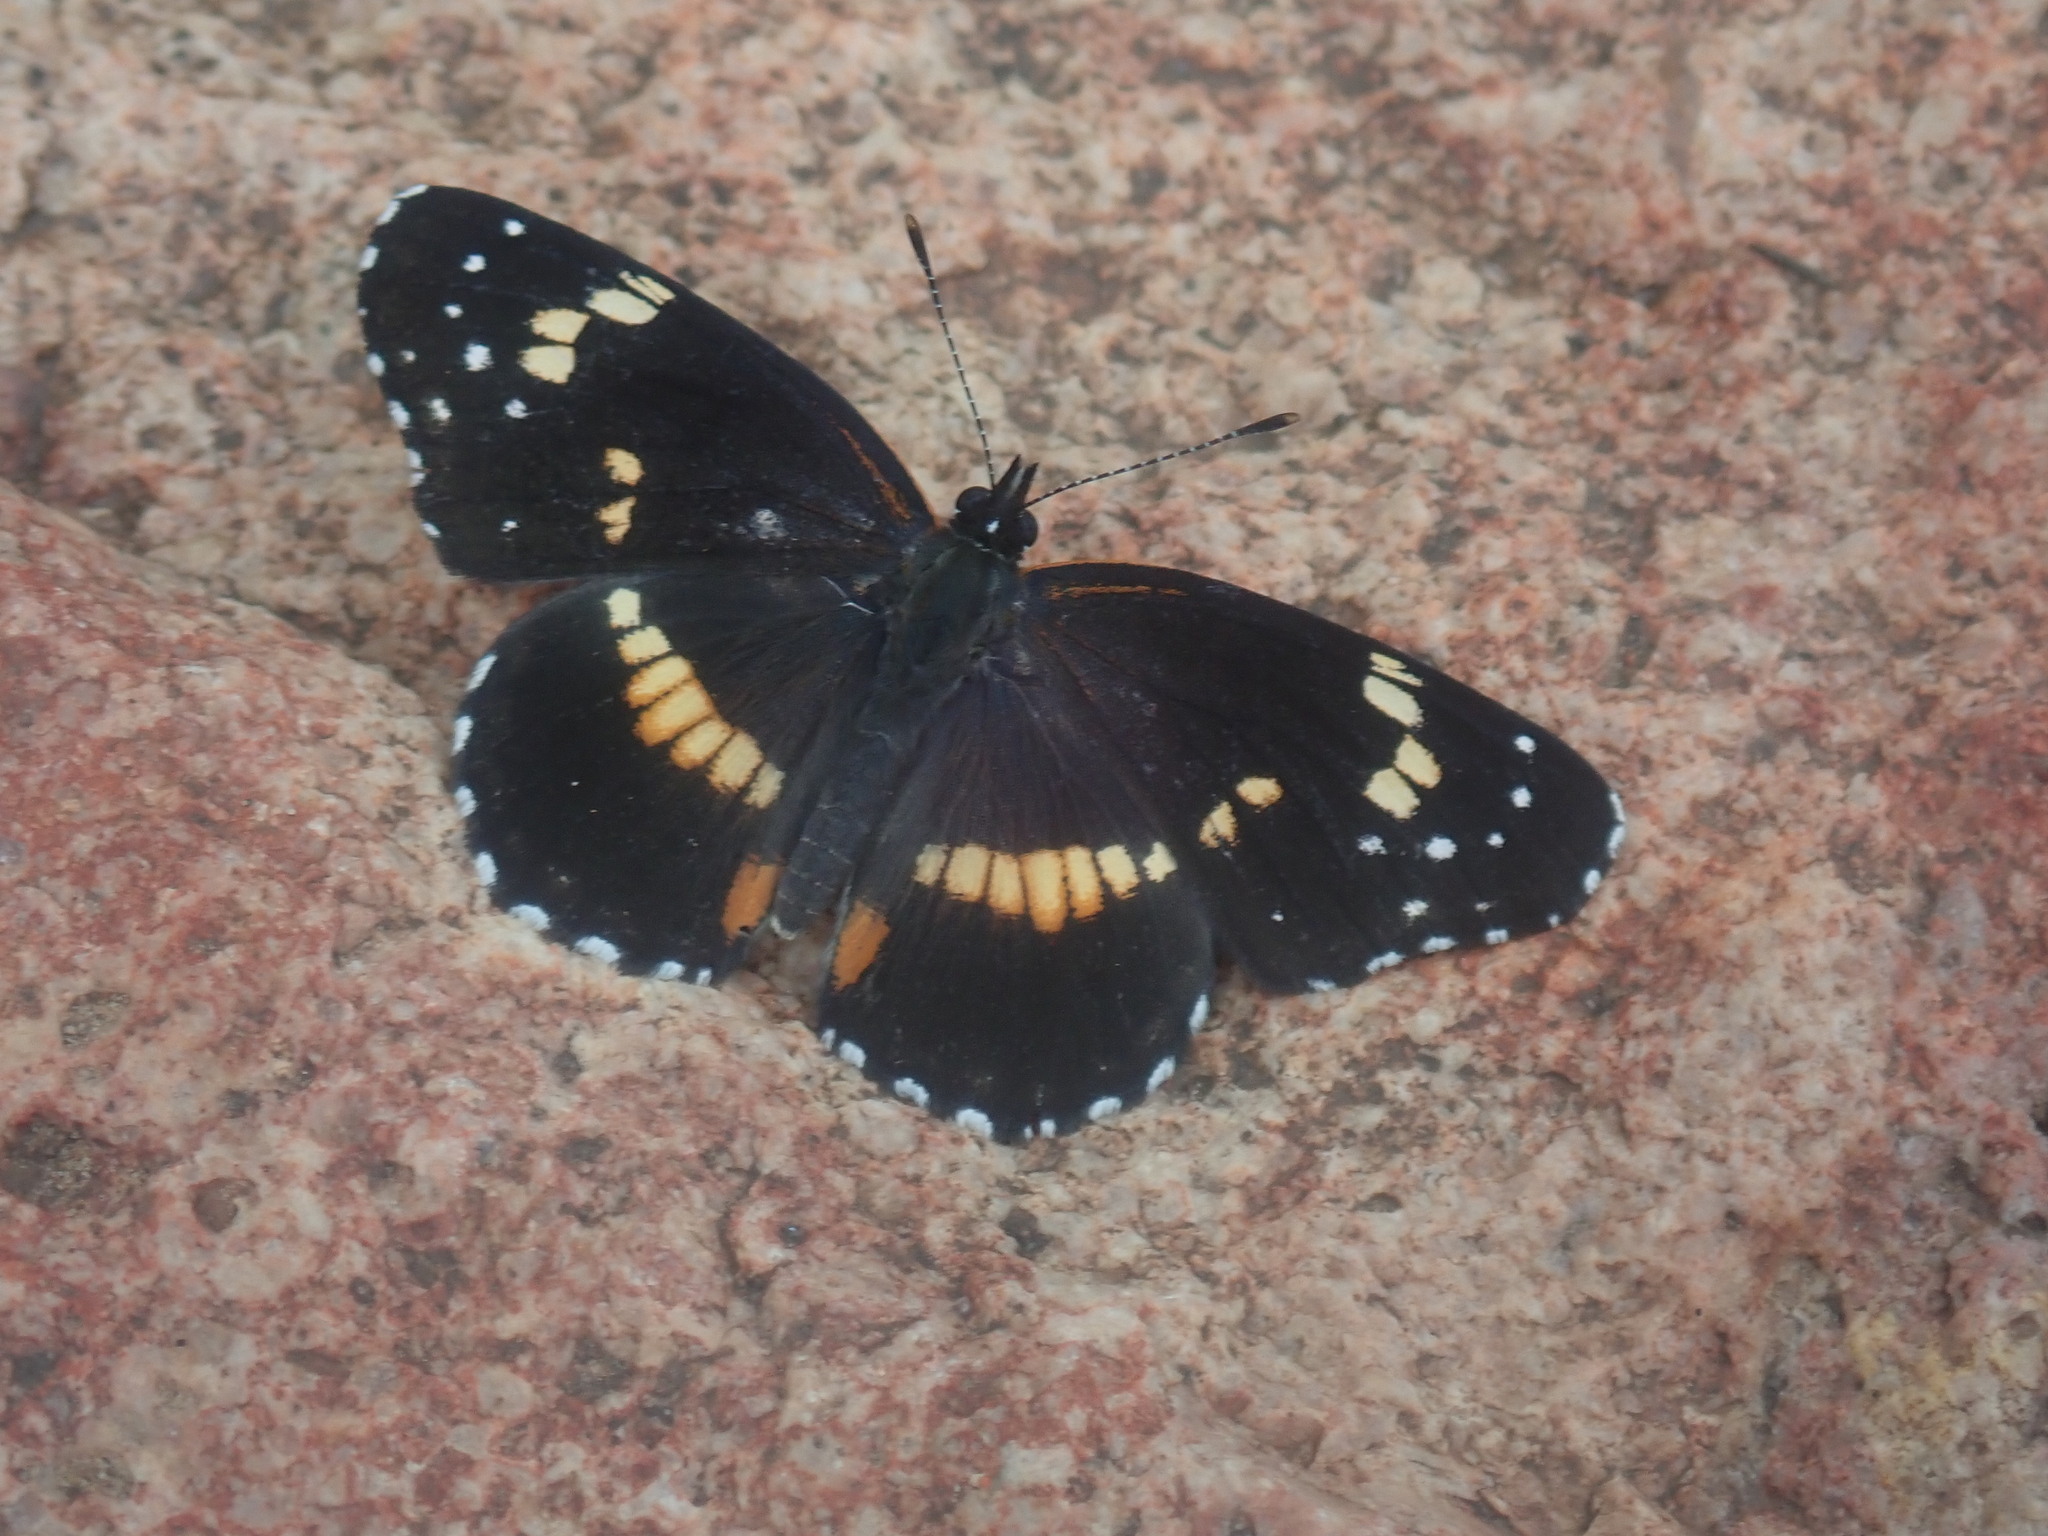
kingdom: Animalia
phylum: Arthropoda
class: Insecta
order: Lepidoptera
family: Nymphalidae
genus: Chlosyne
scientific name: Chlosyne lacinia
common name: Bordered patch
